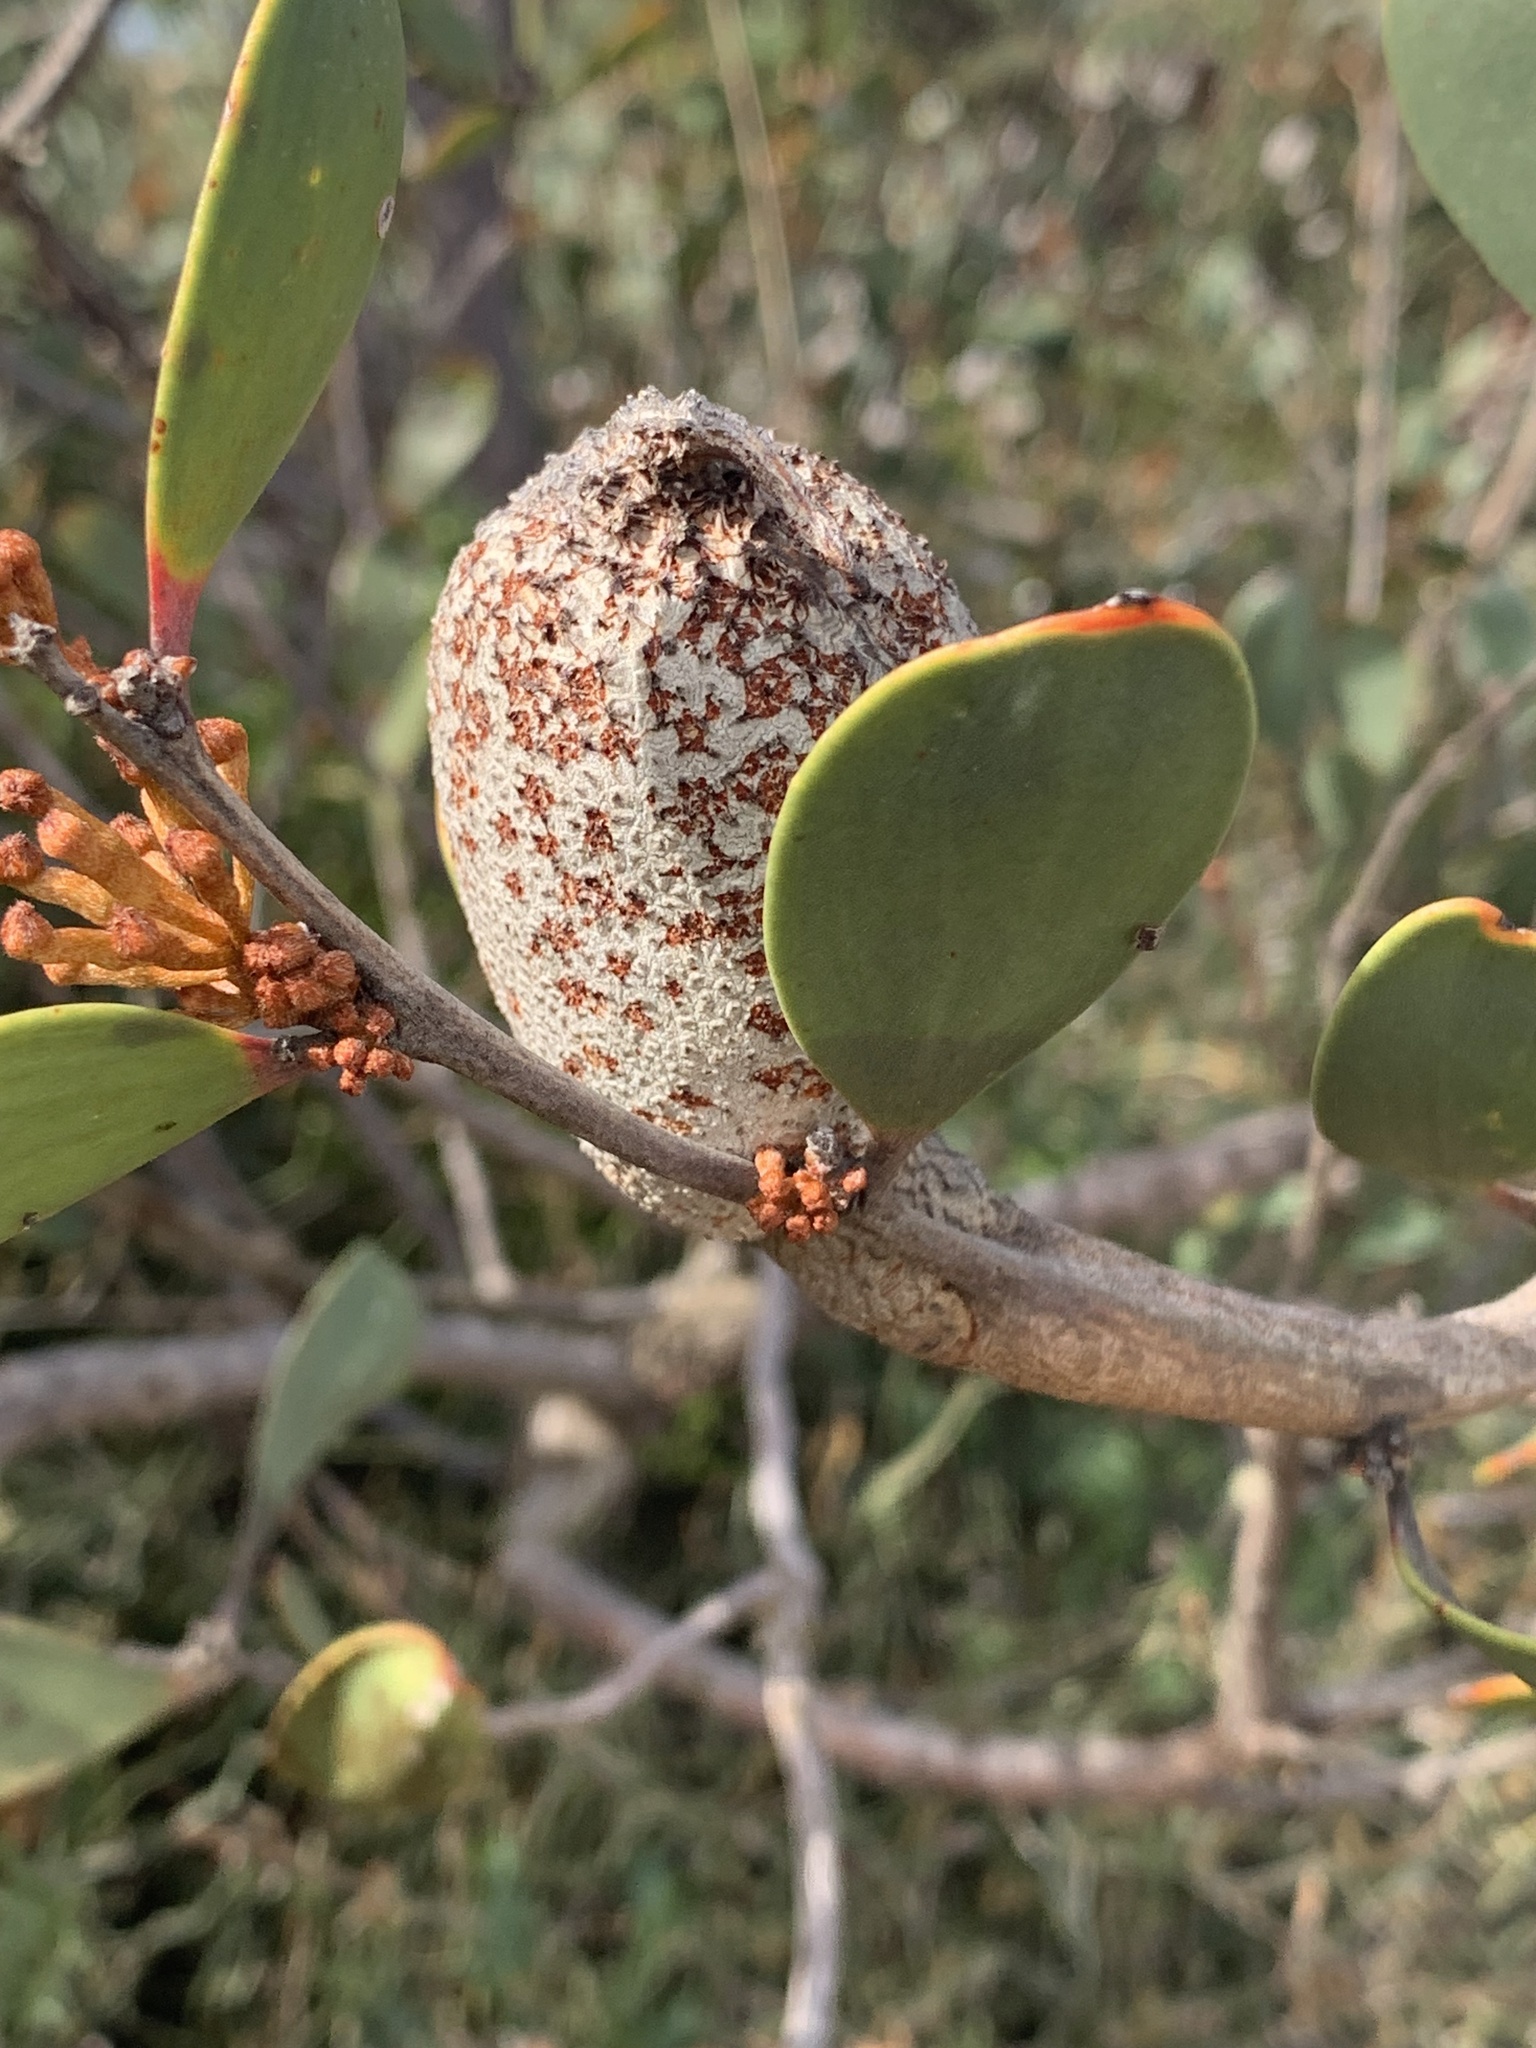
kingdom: Plantae
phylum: Tracheophyta
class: Magnoliopsida
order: Proteales
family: Proteaceae
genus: Hakea
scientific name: Hakea pandanicarpa
